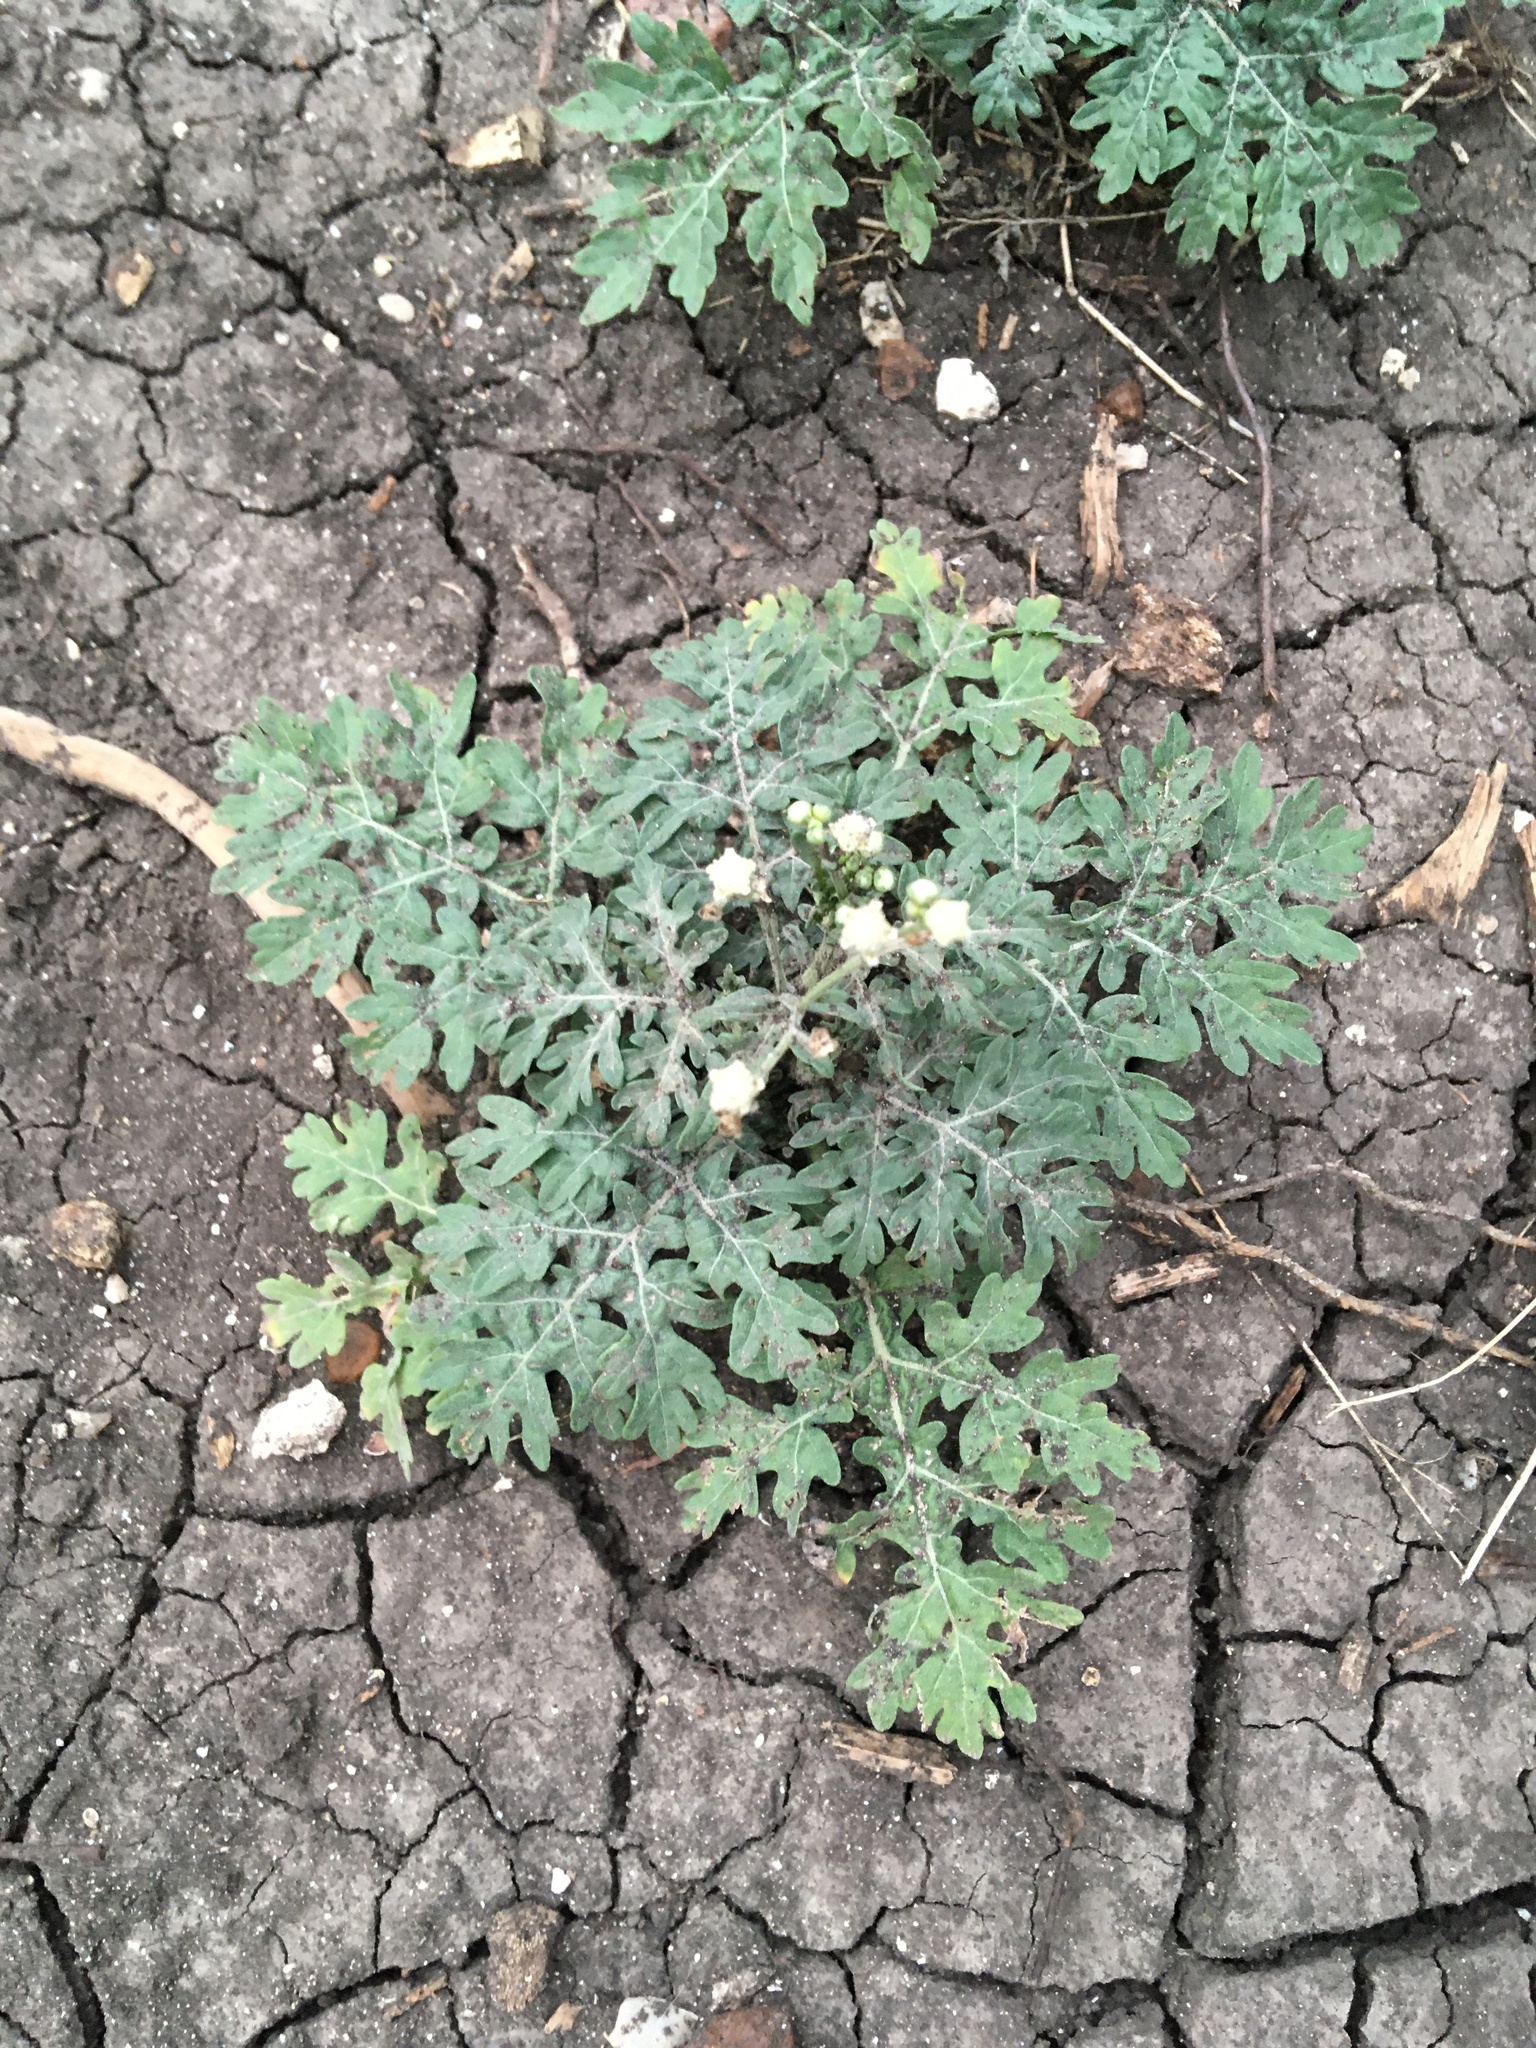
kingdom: Plantae
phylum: Tracheophyta
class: Magnoliopsida
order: Asterales
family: Asteraceae
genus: Parthenium
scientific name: Parthenium hysterophorus
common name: Santa maria feverfew
